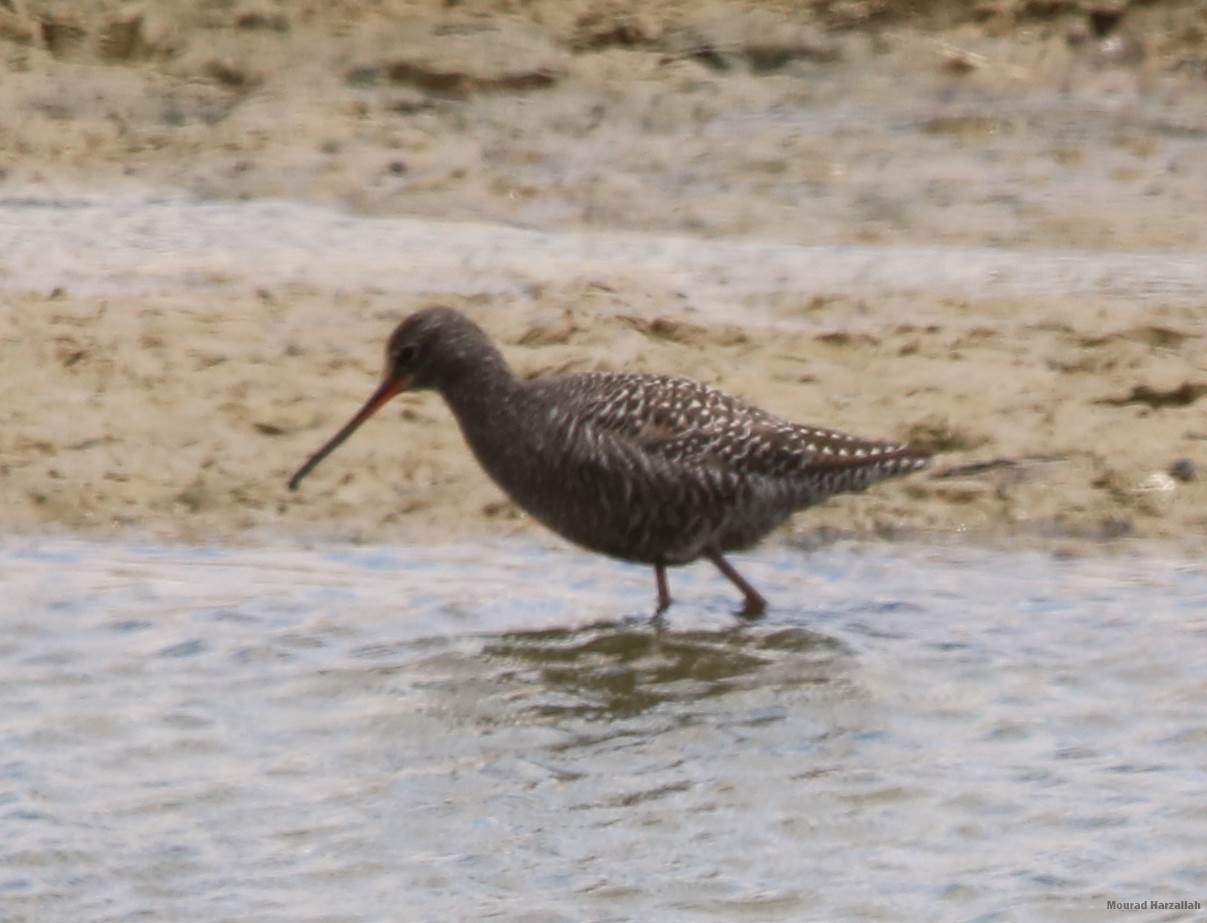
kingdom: Animalia
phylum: Chordata
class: Aves
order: Charadriiformes
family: Scolopacidae
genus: Tringa
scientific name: Tringa erythropus
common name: Spotted redshank
